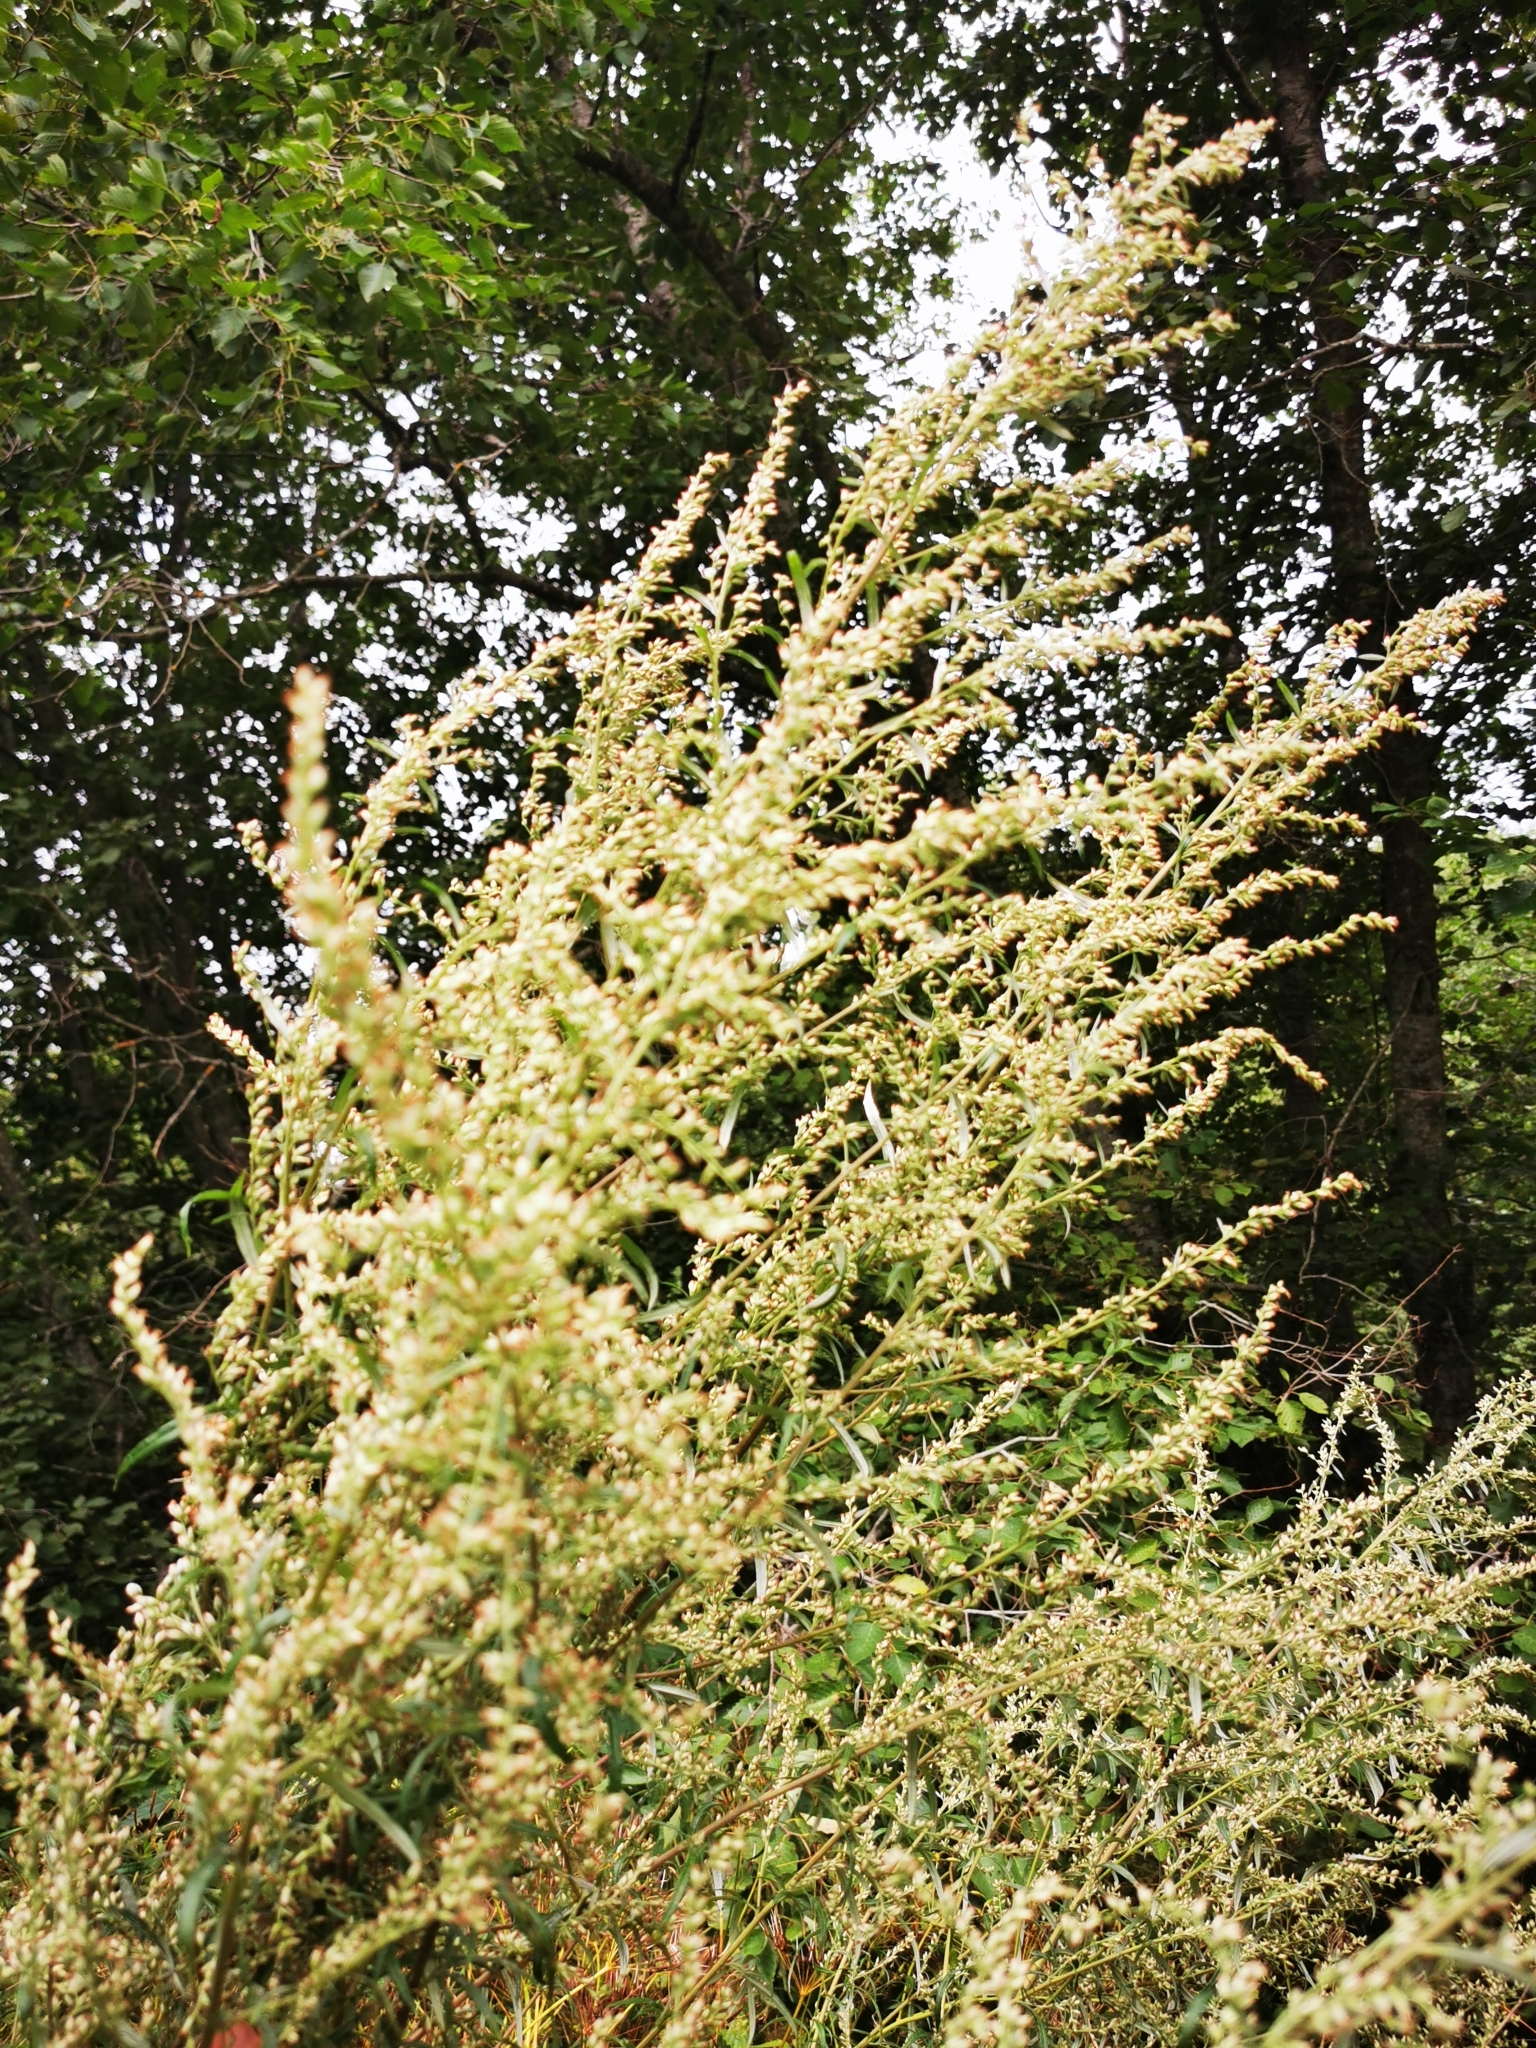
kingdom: Plantae
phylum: Tracheophyta
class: Magnoliopsida
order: Asterales
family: Asteraceae
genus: Artemisia
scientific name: Artemisia vulgaris
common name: Mugwort
